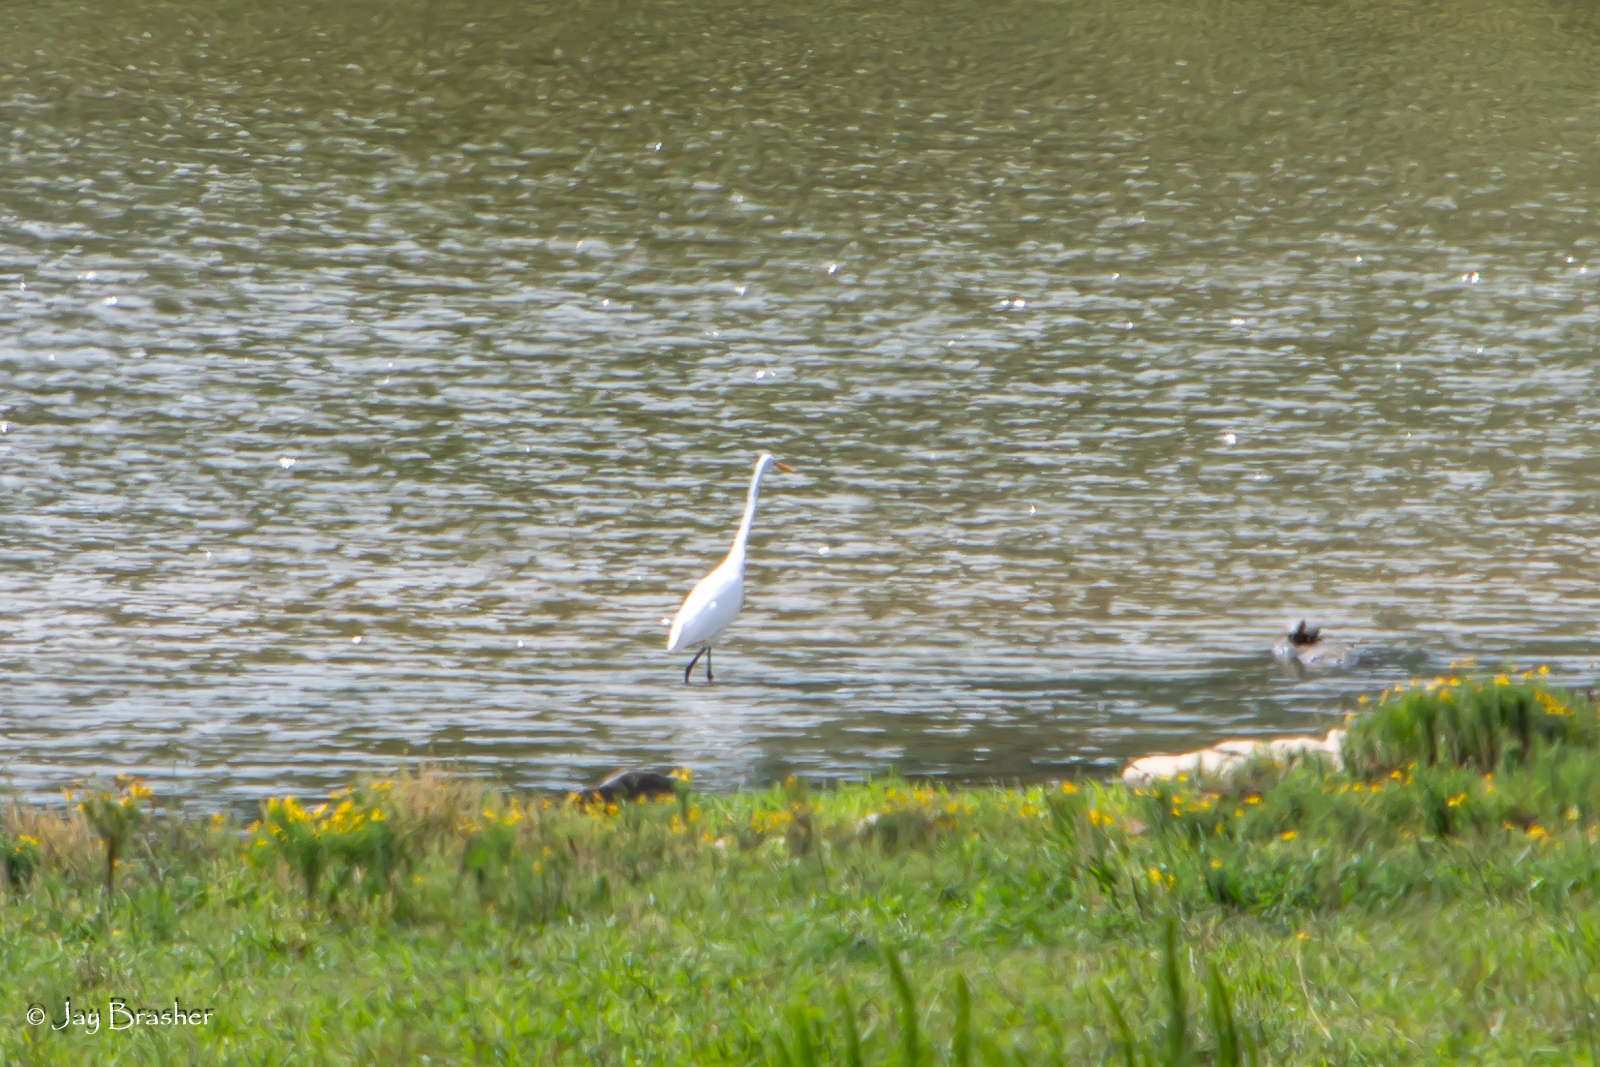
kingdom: Animalia
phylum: Chordata
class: Aves
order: Pelecaniformes
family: Ardeidae
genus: Ardea
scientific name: Ardea alba
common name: Great egret
